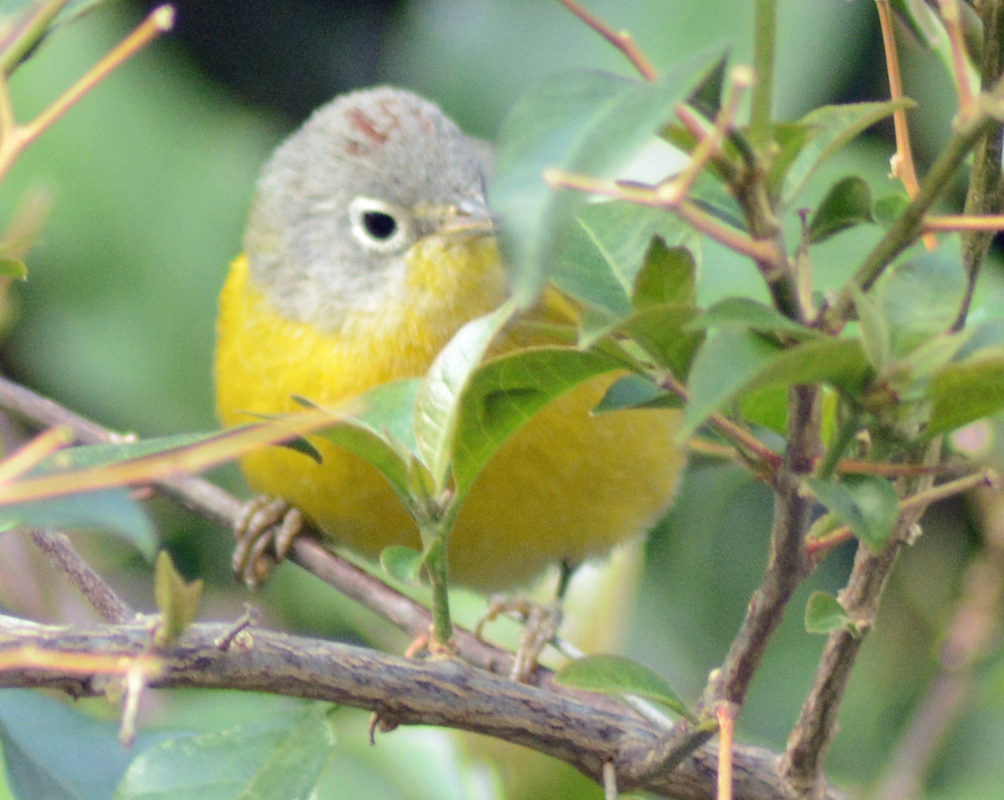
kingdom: Animalia
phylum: Chordata
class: Aves
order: Passeriformes
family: Parulidae
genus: Leiothlypis
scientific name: Leiothlypis ruficapilla
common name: Nashville warbler
